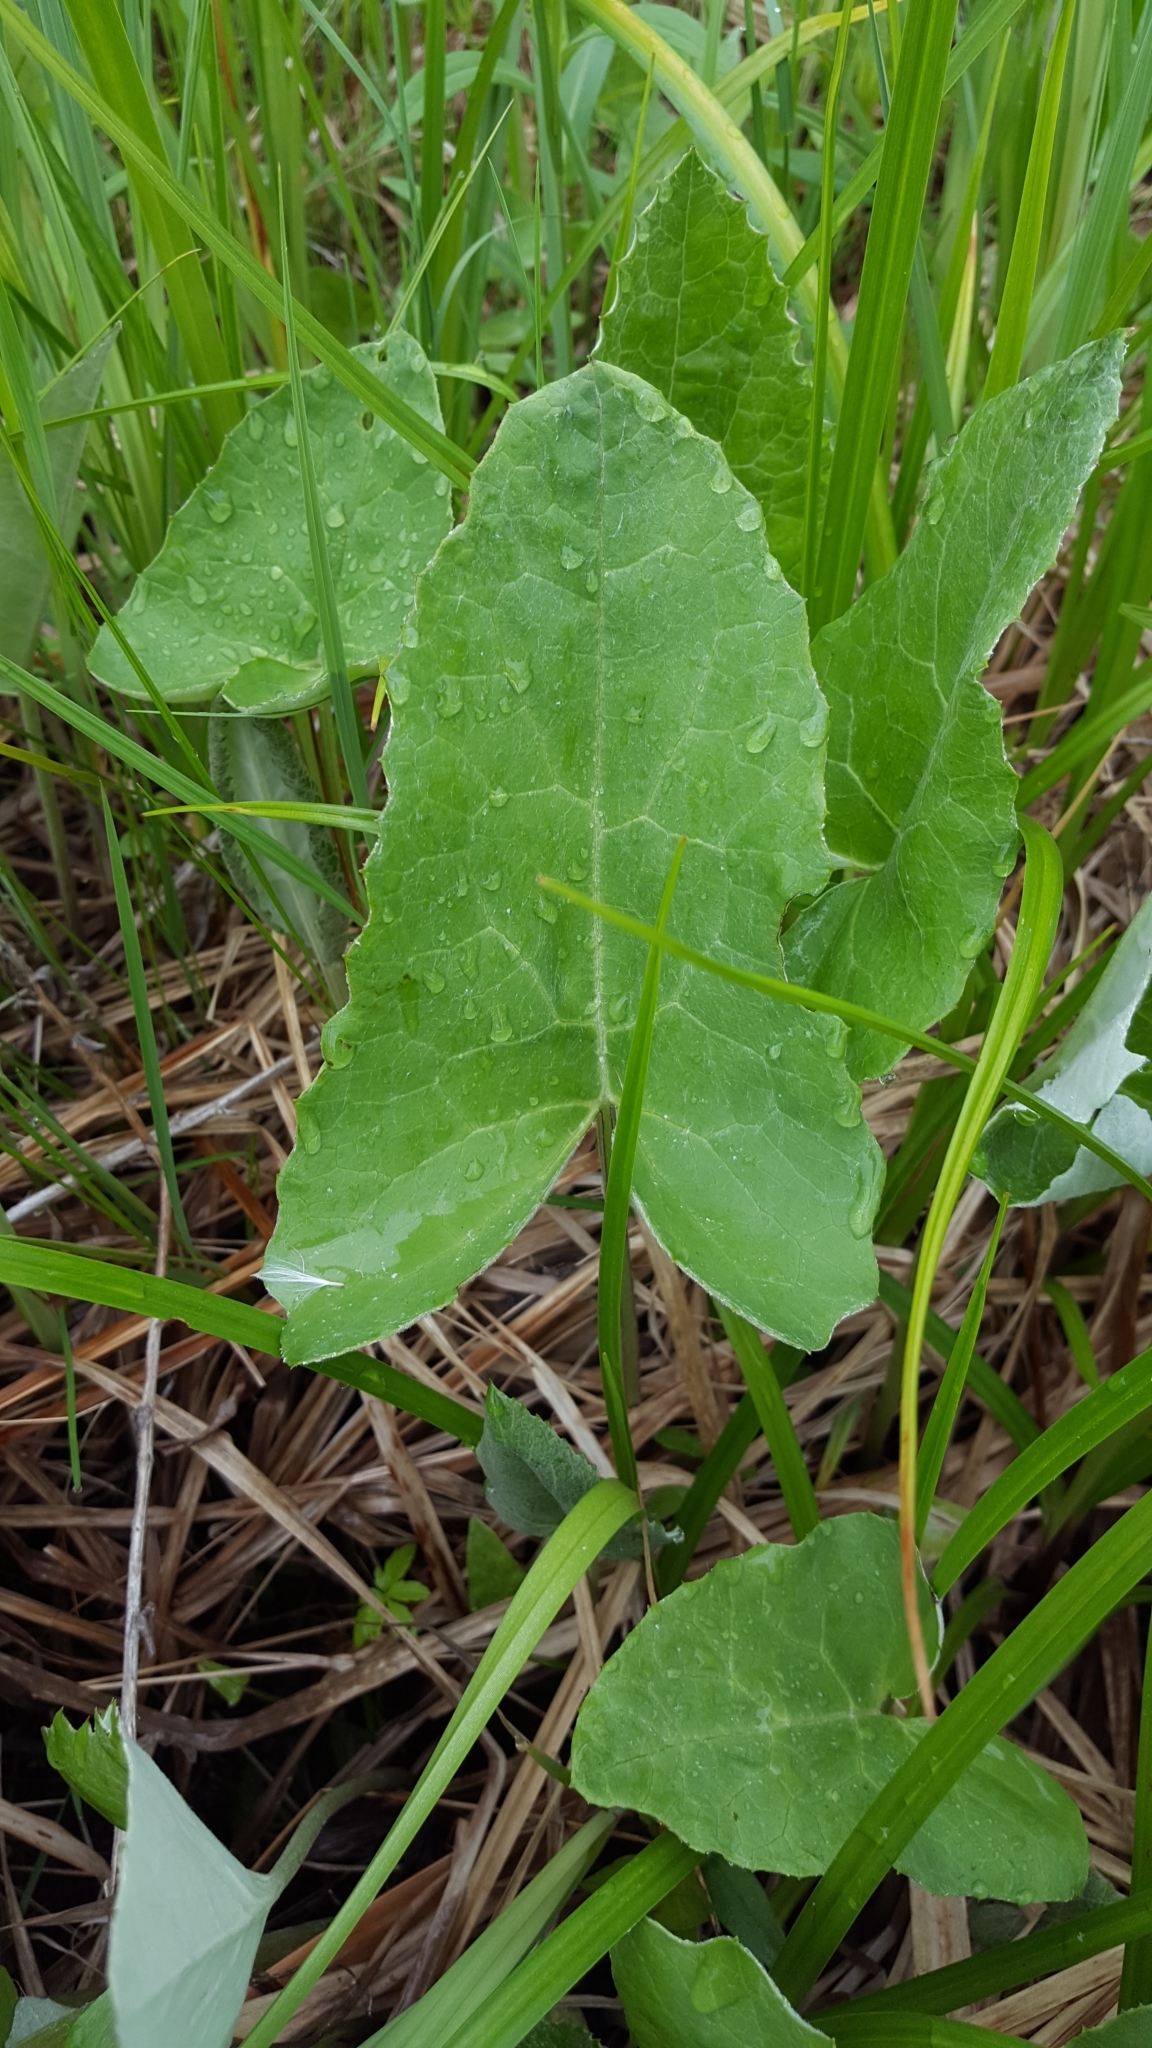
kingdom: Plantae
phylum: Tracheophyta
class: Magnoliopsida
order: Asterales
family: Asteraceae
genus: Petasites
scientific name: Petasites frigidus
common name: Arctic butterbur
